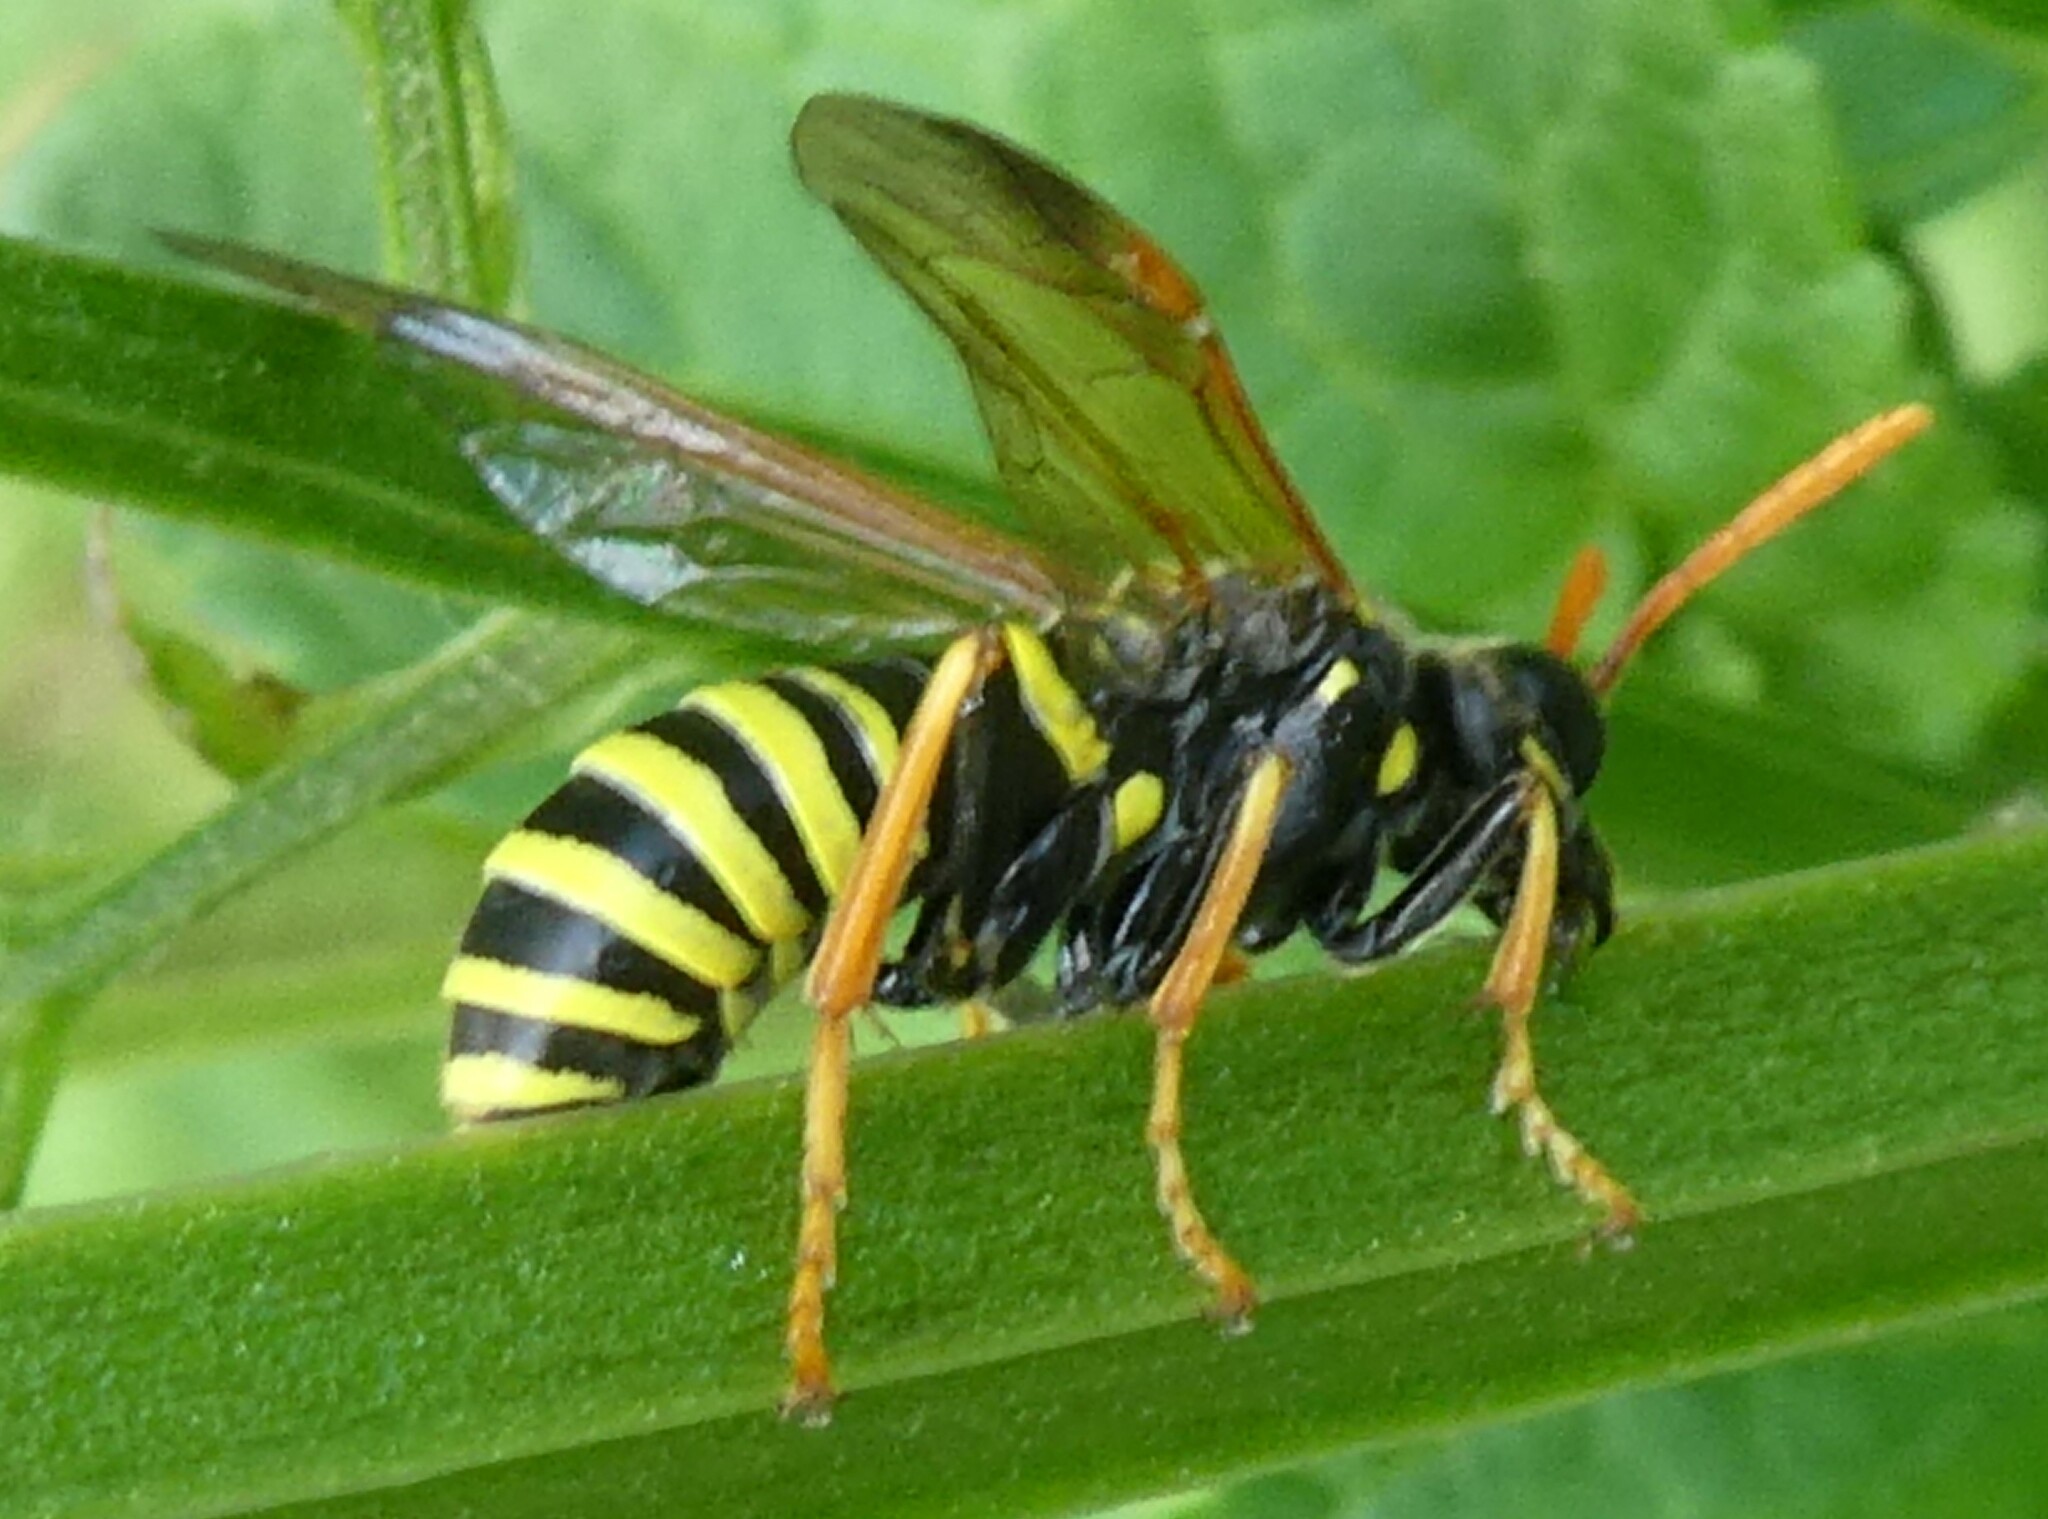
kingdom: Animalia
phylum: Arthropoda
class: Insecta
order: Hymenoptera
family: Tenthredinidae
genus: Tenthredo
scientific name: Tenthredo scrophulariae
